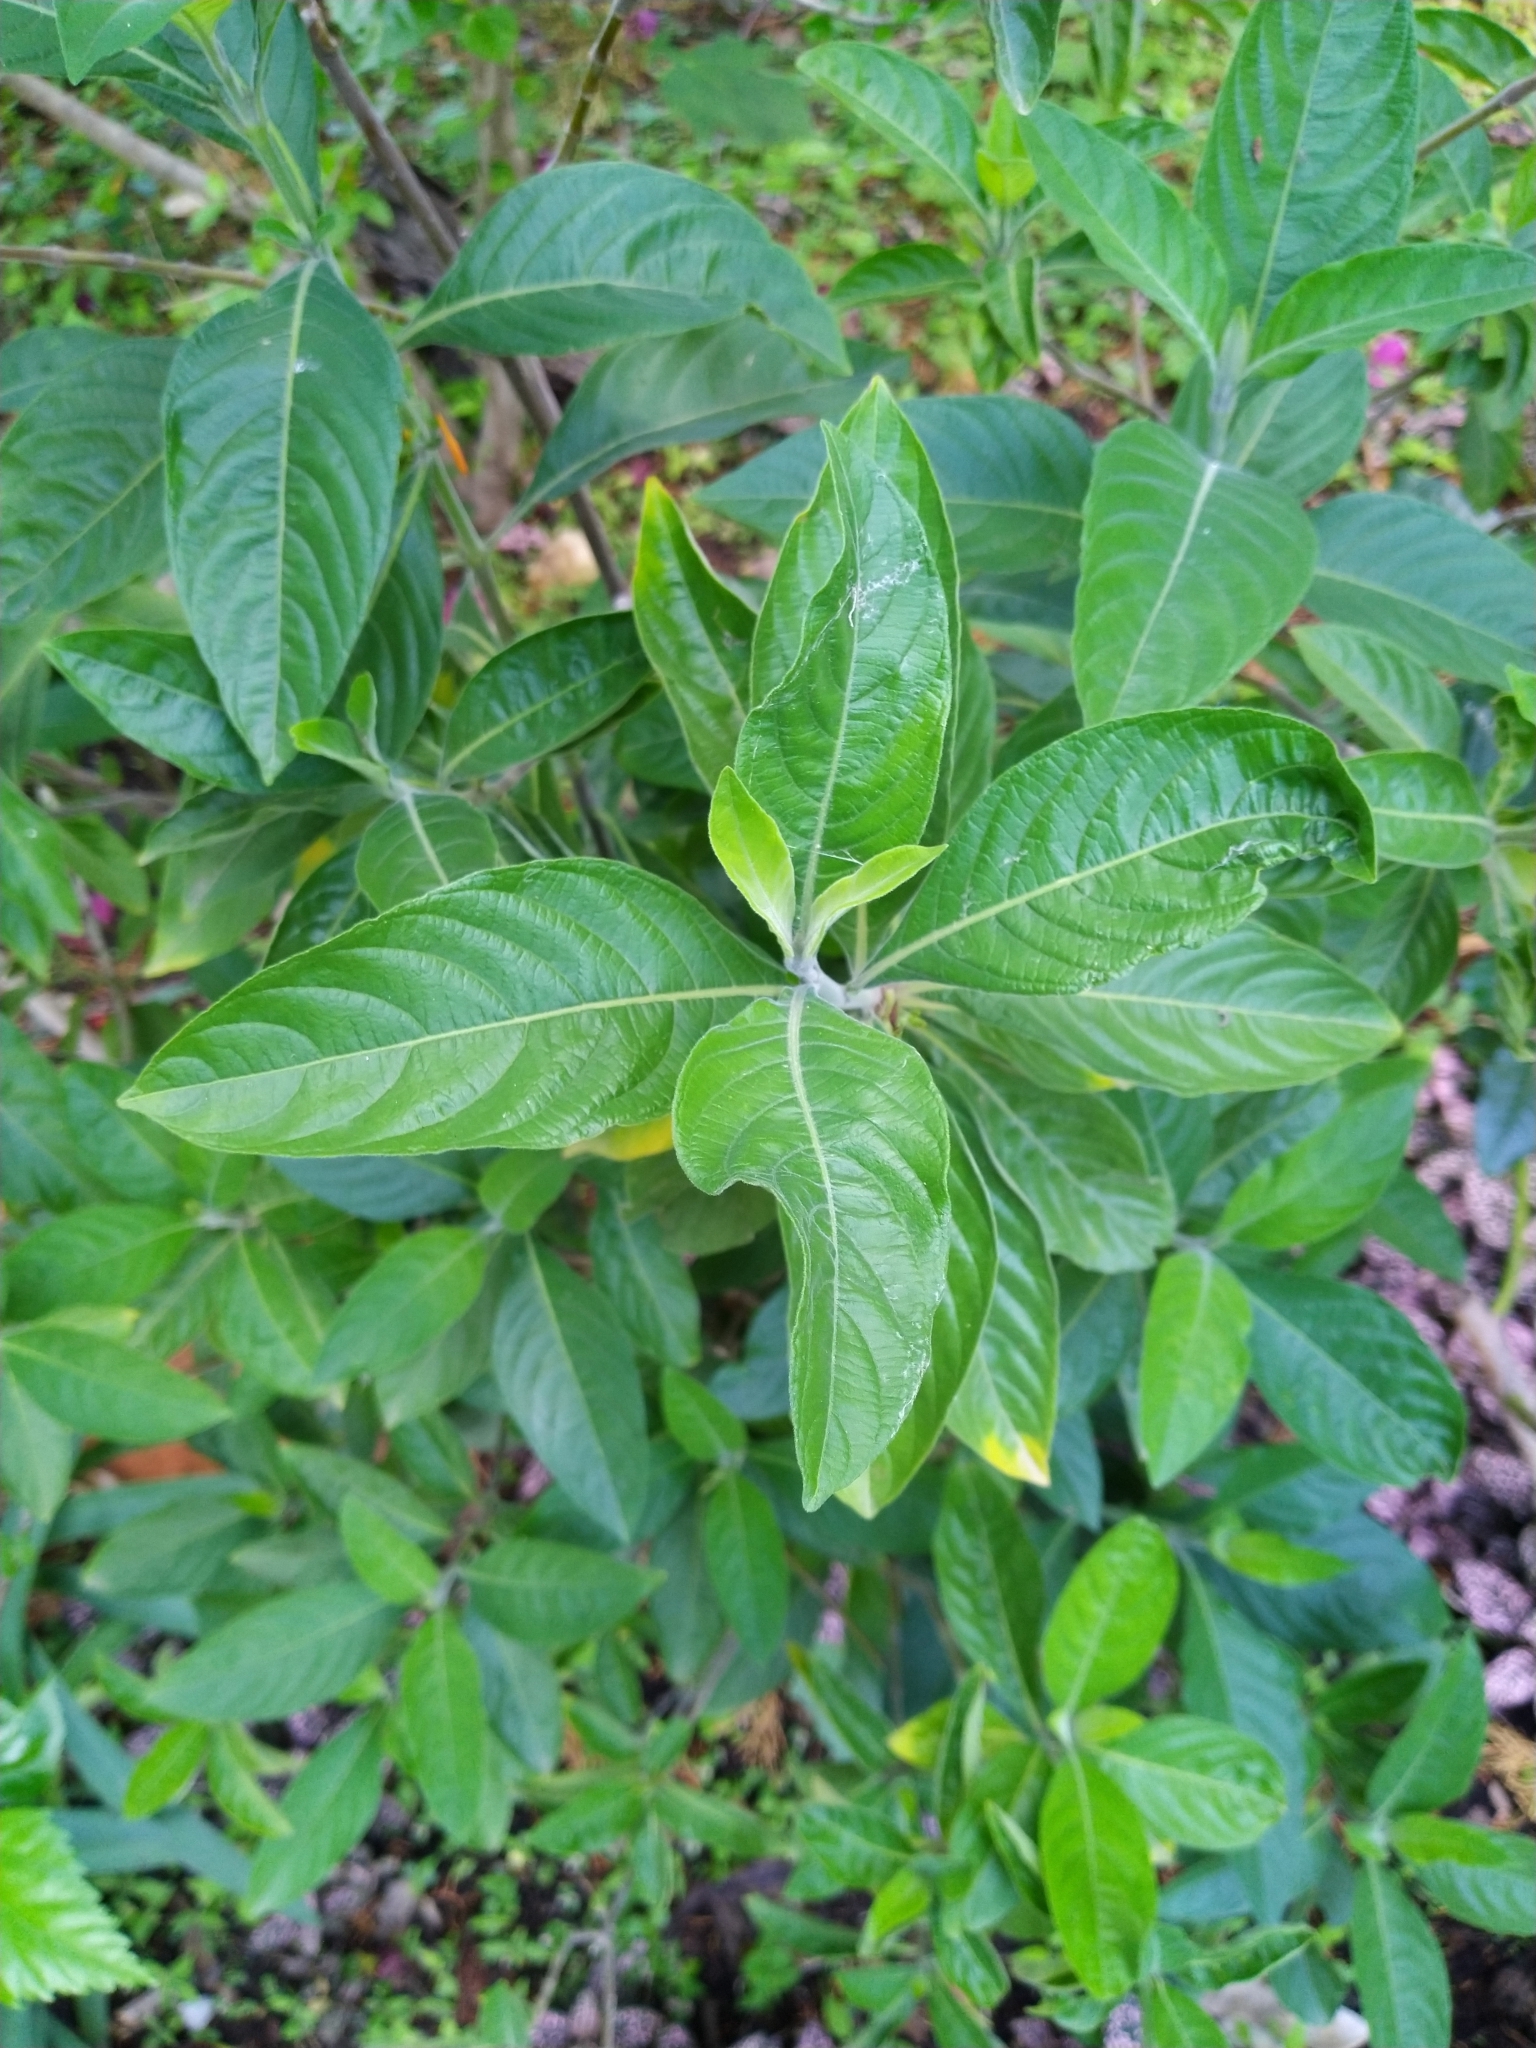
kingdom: Plantae
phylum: Tracheophyta
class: Magnoliopsida
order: Lamiales
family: Acanthaceae
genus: Justicia
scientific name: Justicia spicigera
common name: Mohintli
